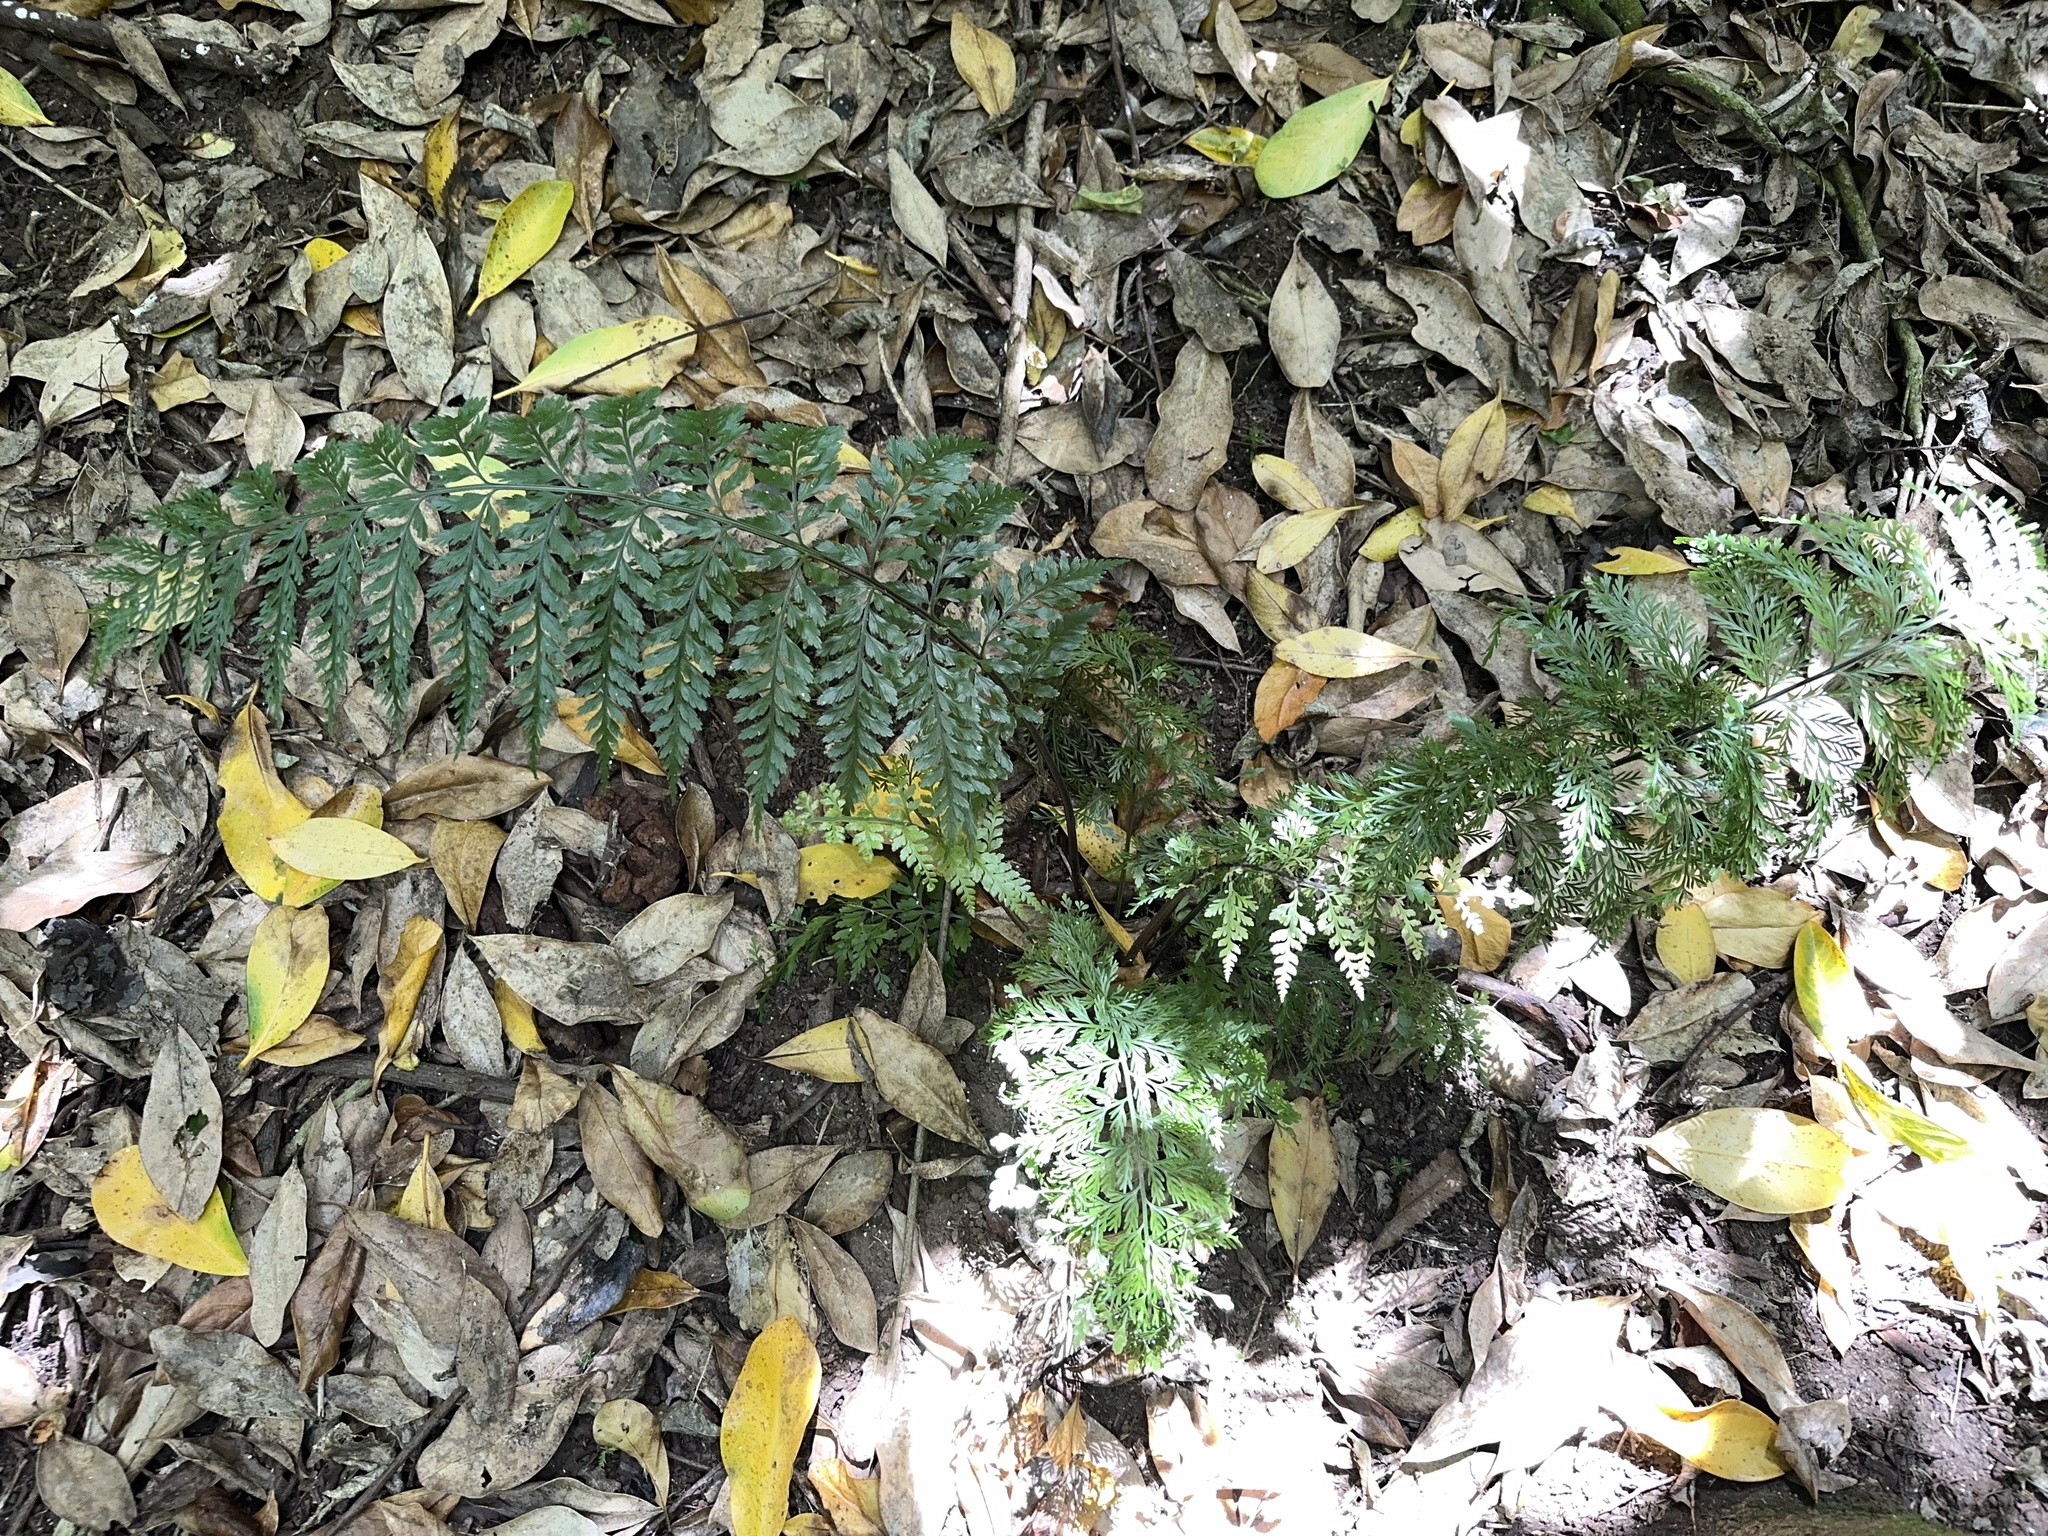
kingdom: Plantae
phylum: Tracheophyta
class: Polypodiopsida
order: Polypodiales
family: Aspleniaceae
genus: Asplenium
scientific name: Asplenium
